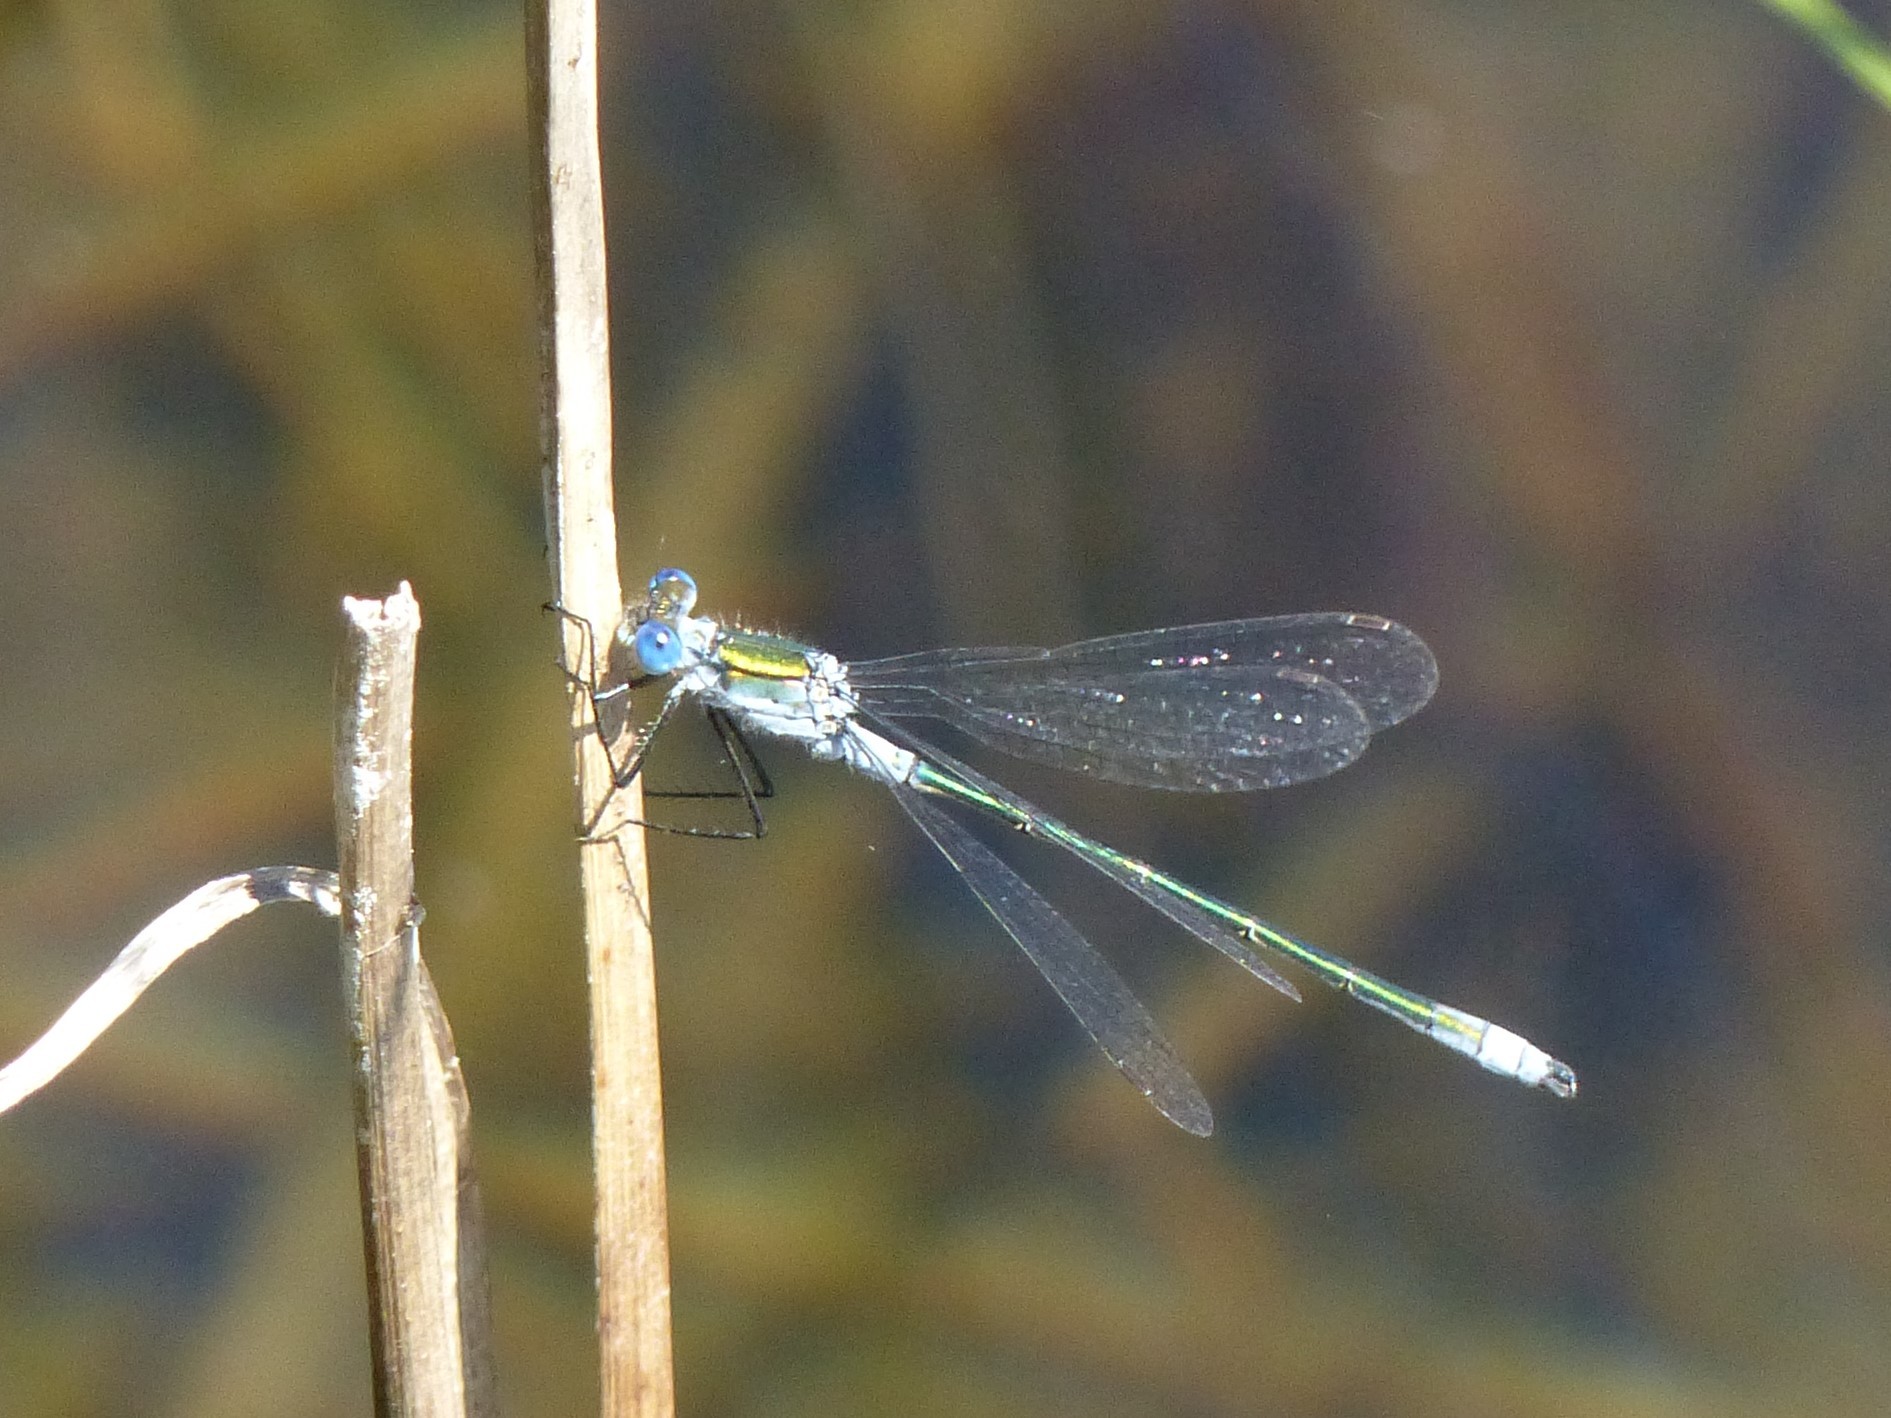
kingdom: Animalia
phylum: Arthropoda
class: Insecta
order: Odonata
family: Lestidae
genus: Lestes
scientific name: Lestes sponsa
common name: Common spreadwing
